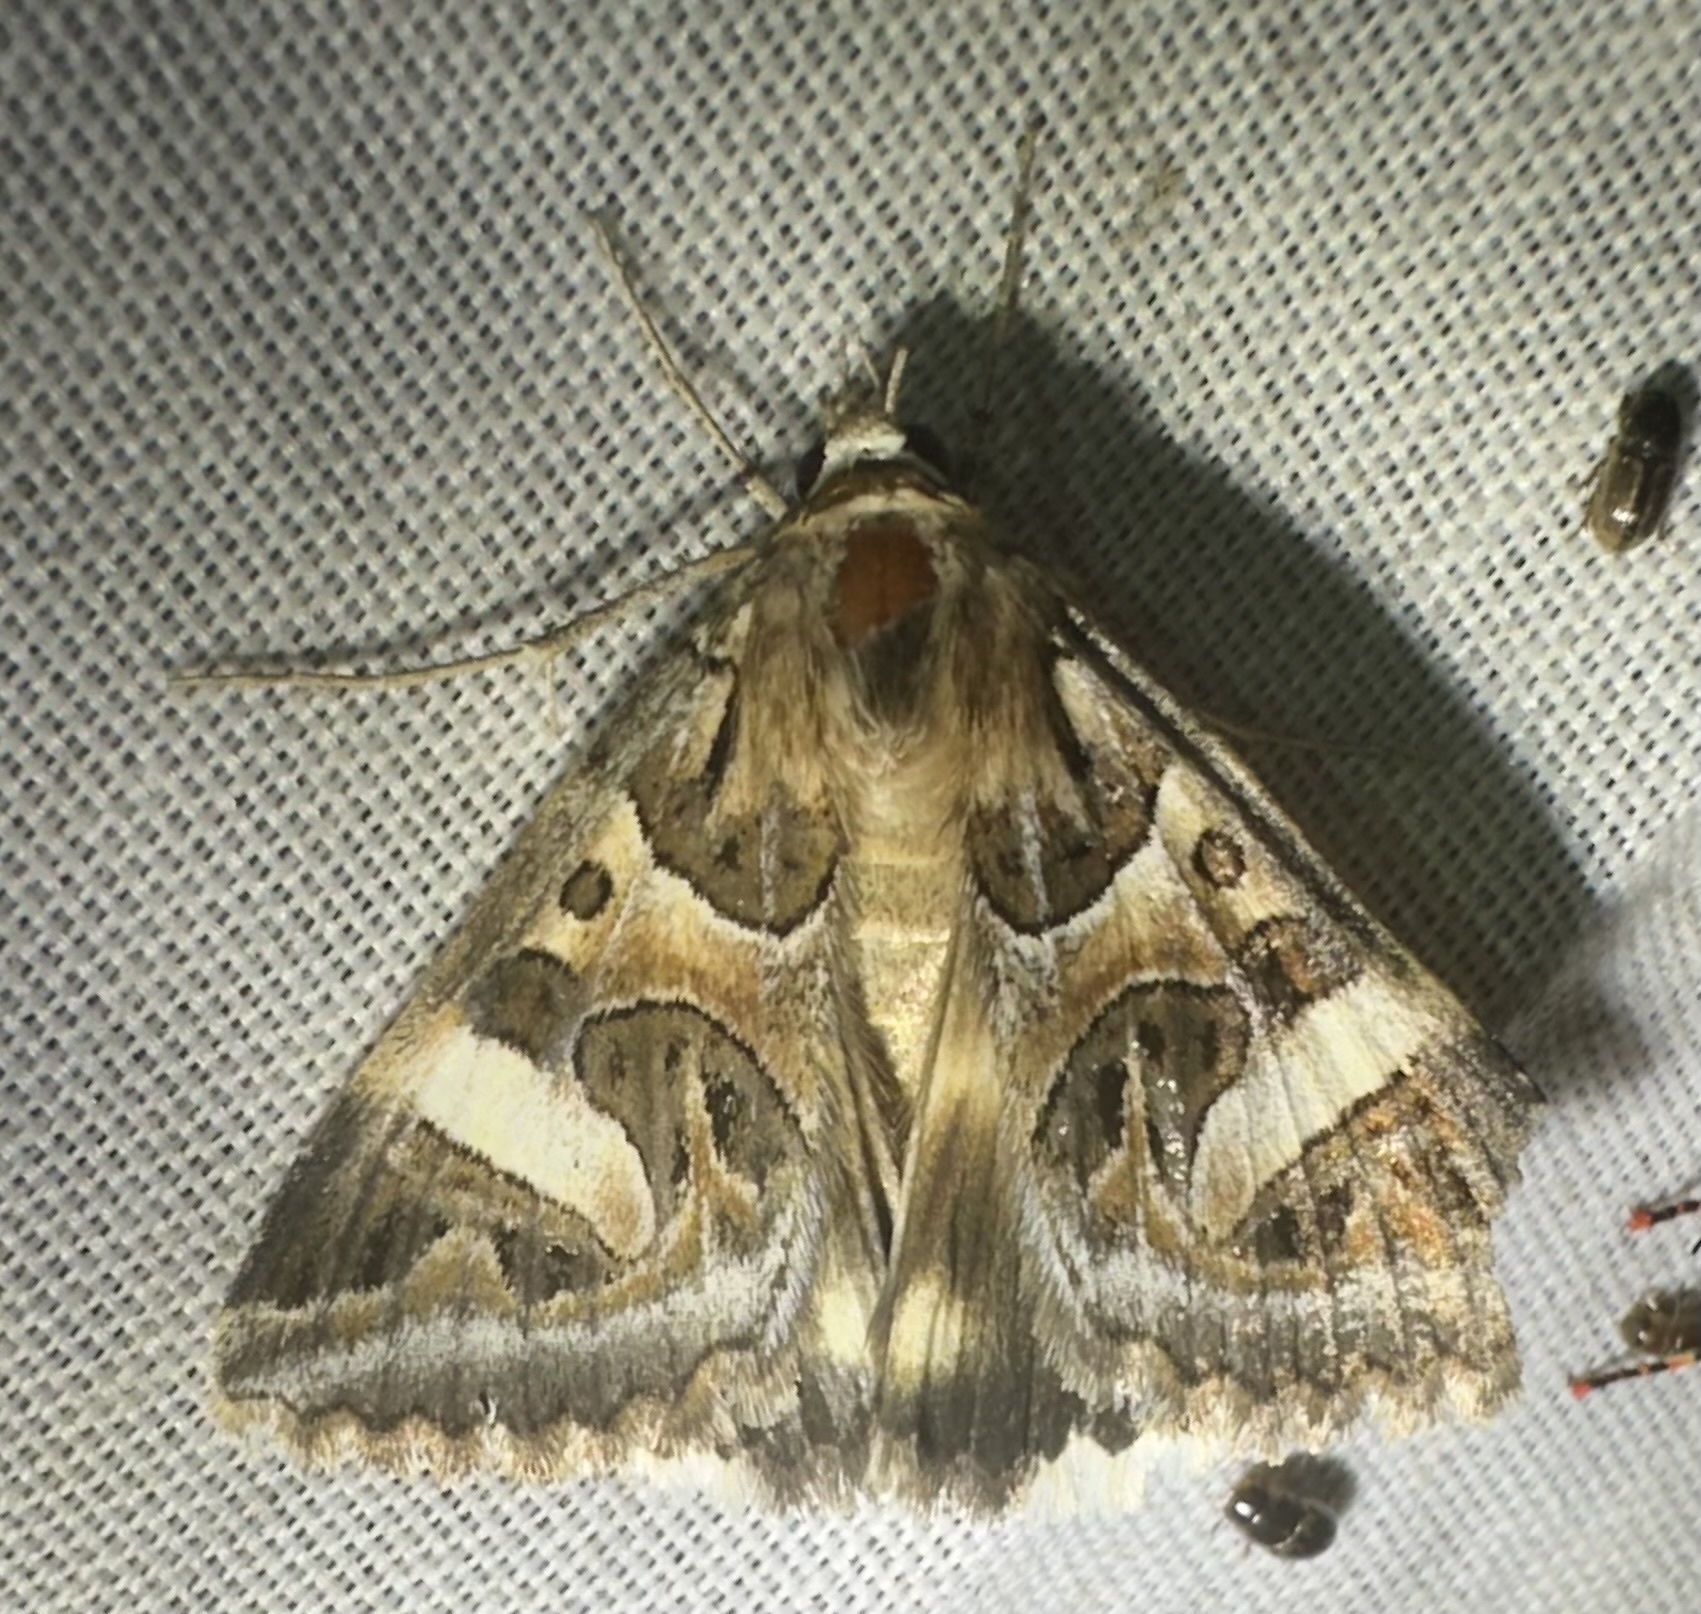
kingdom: Animalia
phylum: Arthropoda
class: Insecta
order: Lepidoptera
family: Erebidae
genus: Cerocala
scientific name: Cerocala vermiculosa
